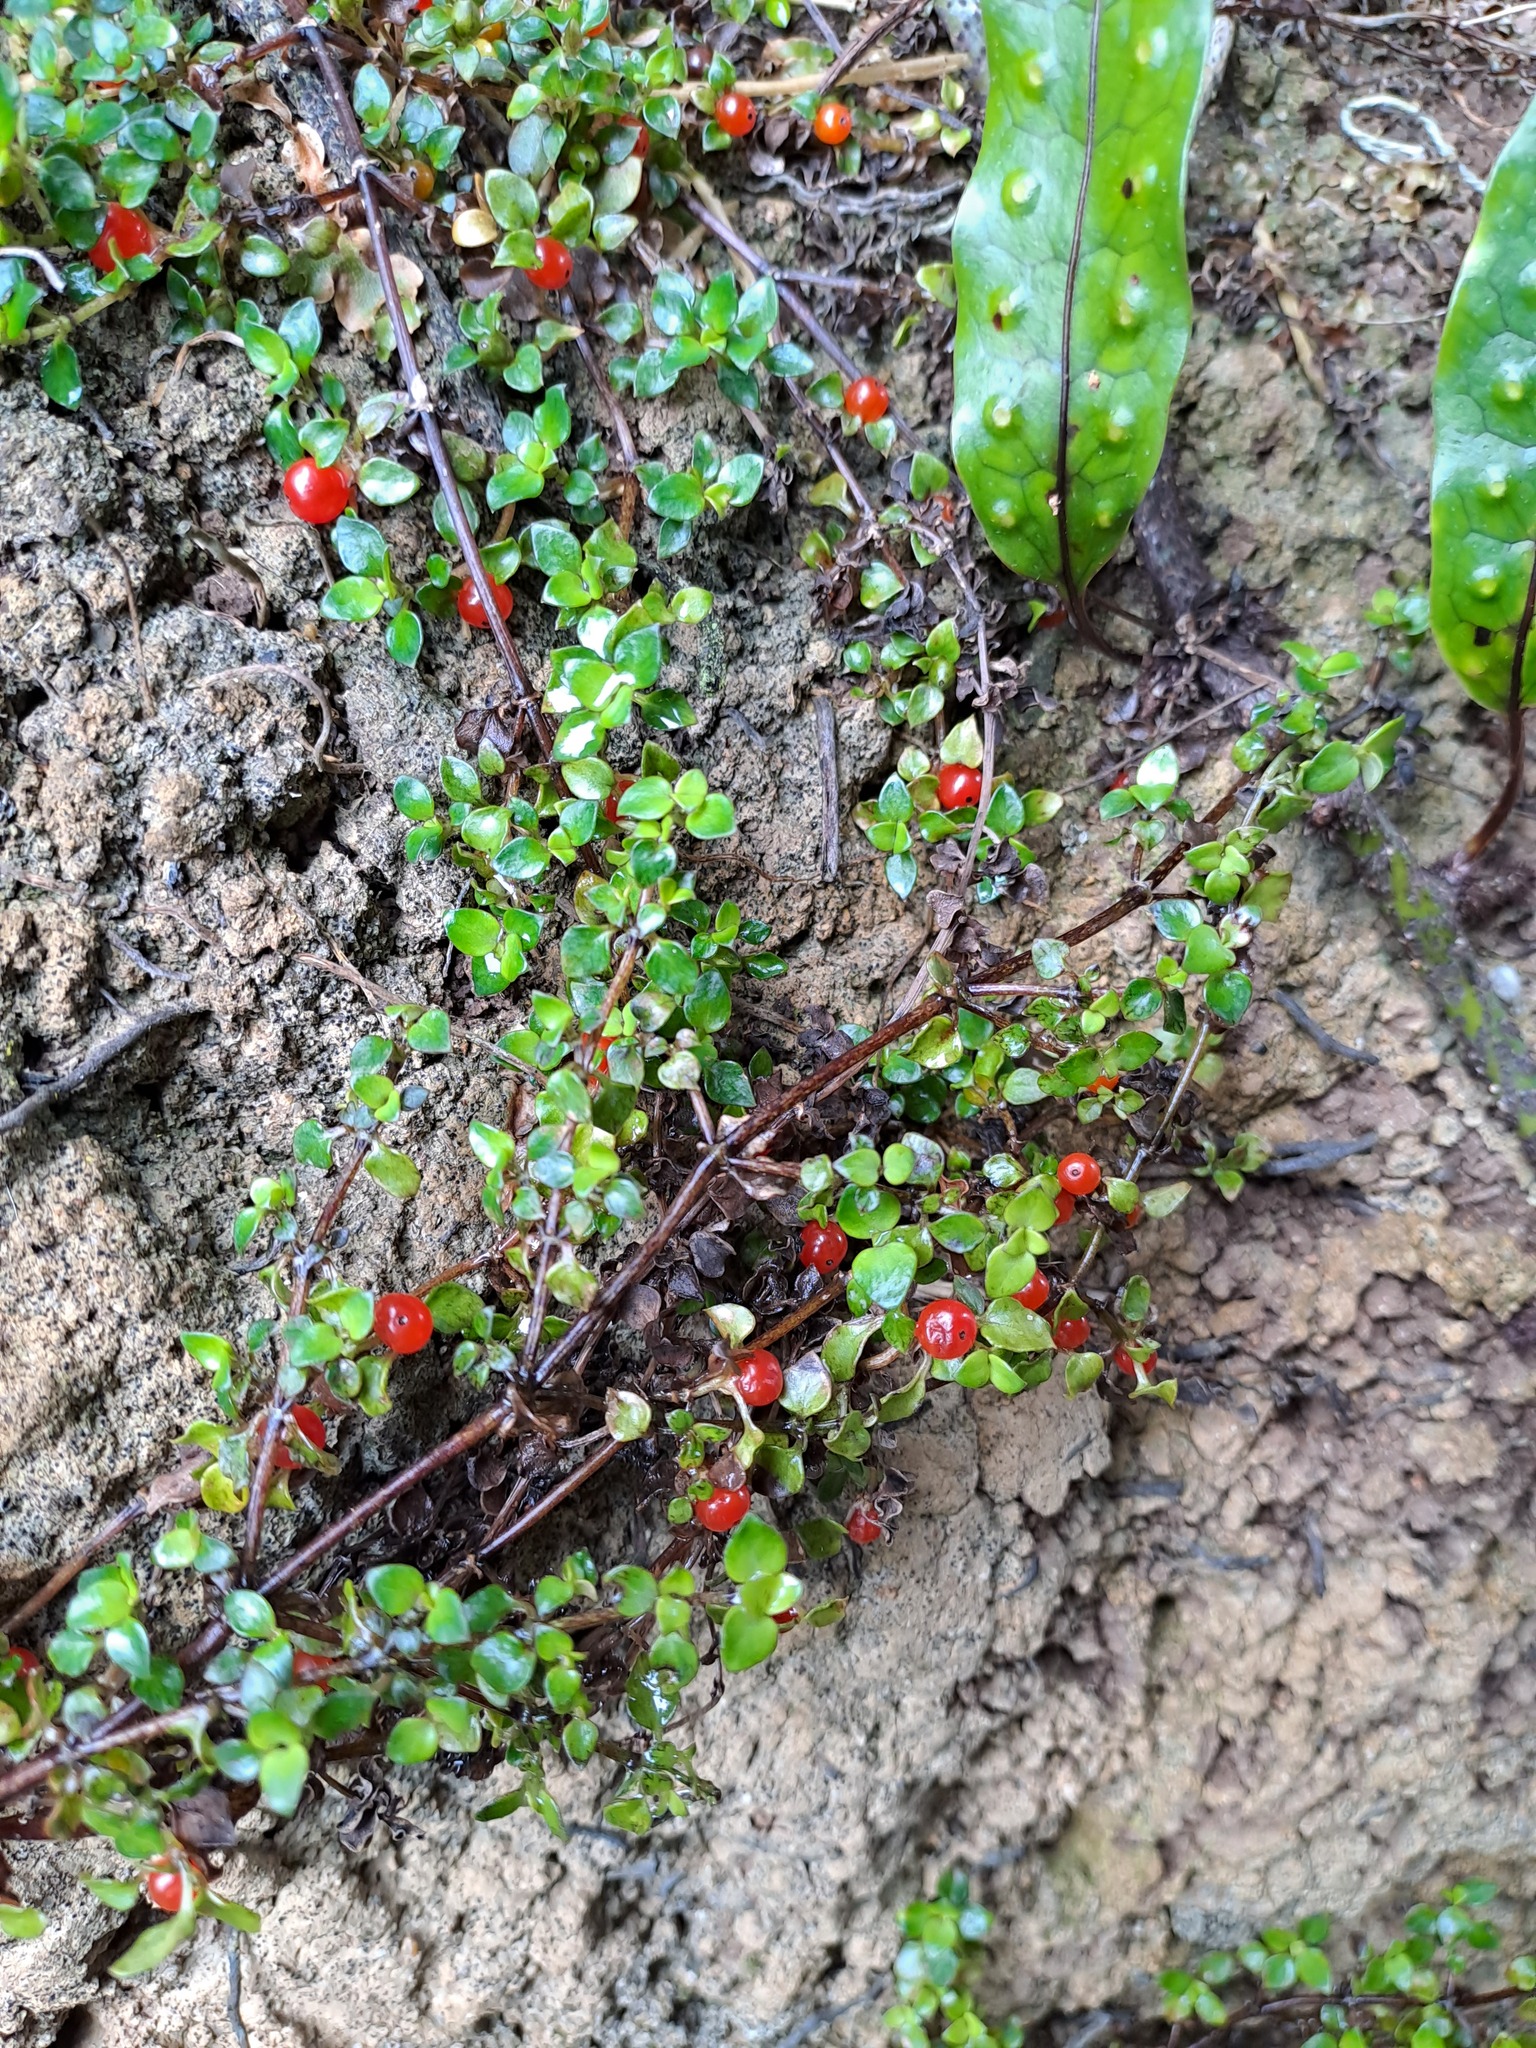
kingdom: Plantae
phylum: Tracheophyta
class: Magnoliopsida
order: Gentianales
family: Rubiaceae
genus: Nertera
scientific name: Nertera granadensis
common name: Beadplant
